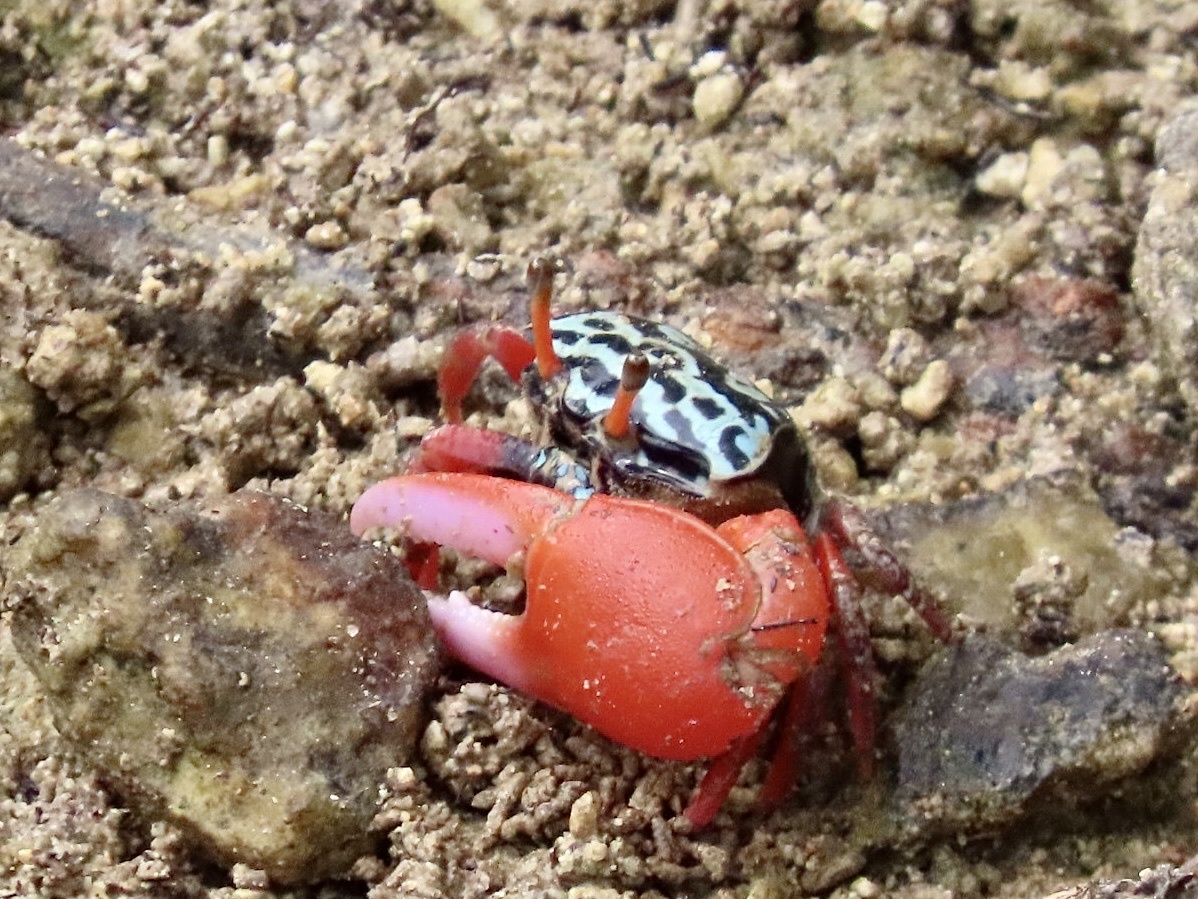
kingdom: Animalia
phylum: Arthropoda
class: Malacostraca
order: Decapoda
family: Ocypodidae
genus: Paraleptuca
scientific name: Paraleptuca splendida
